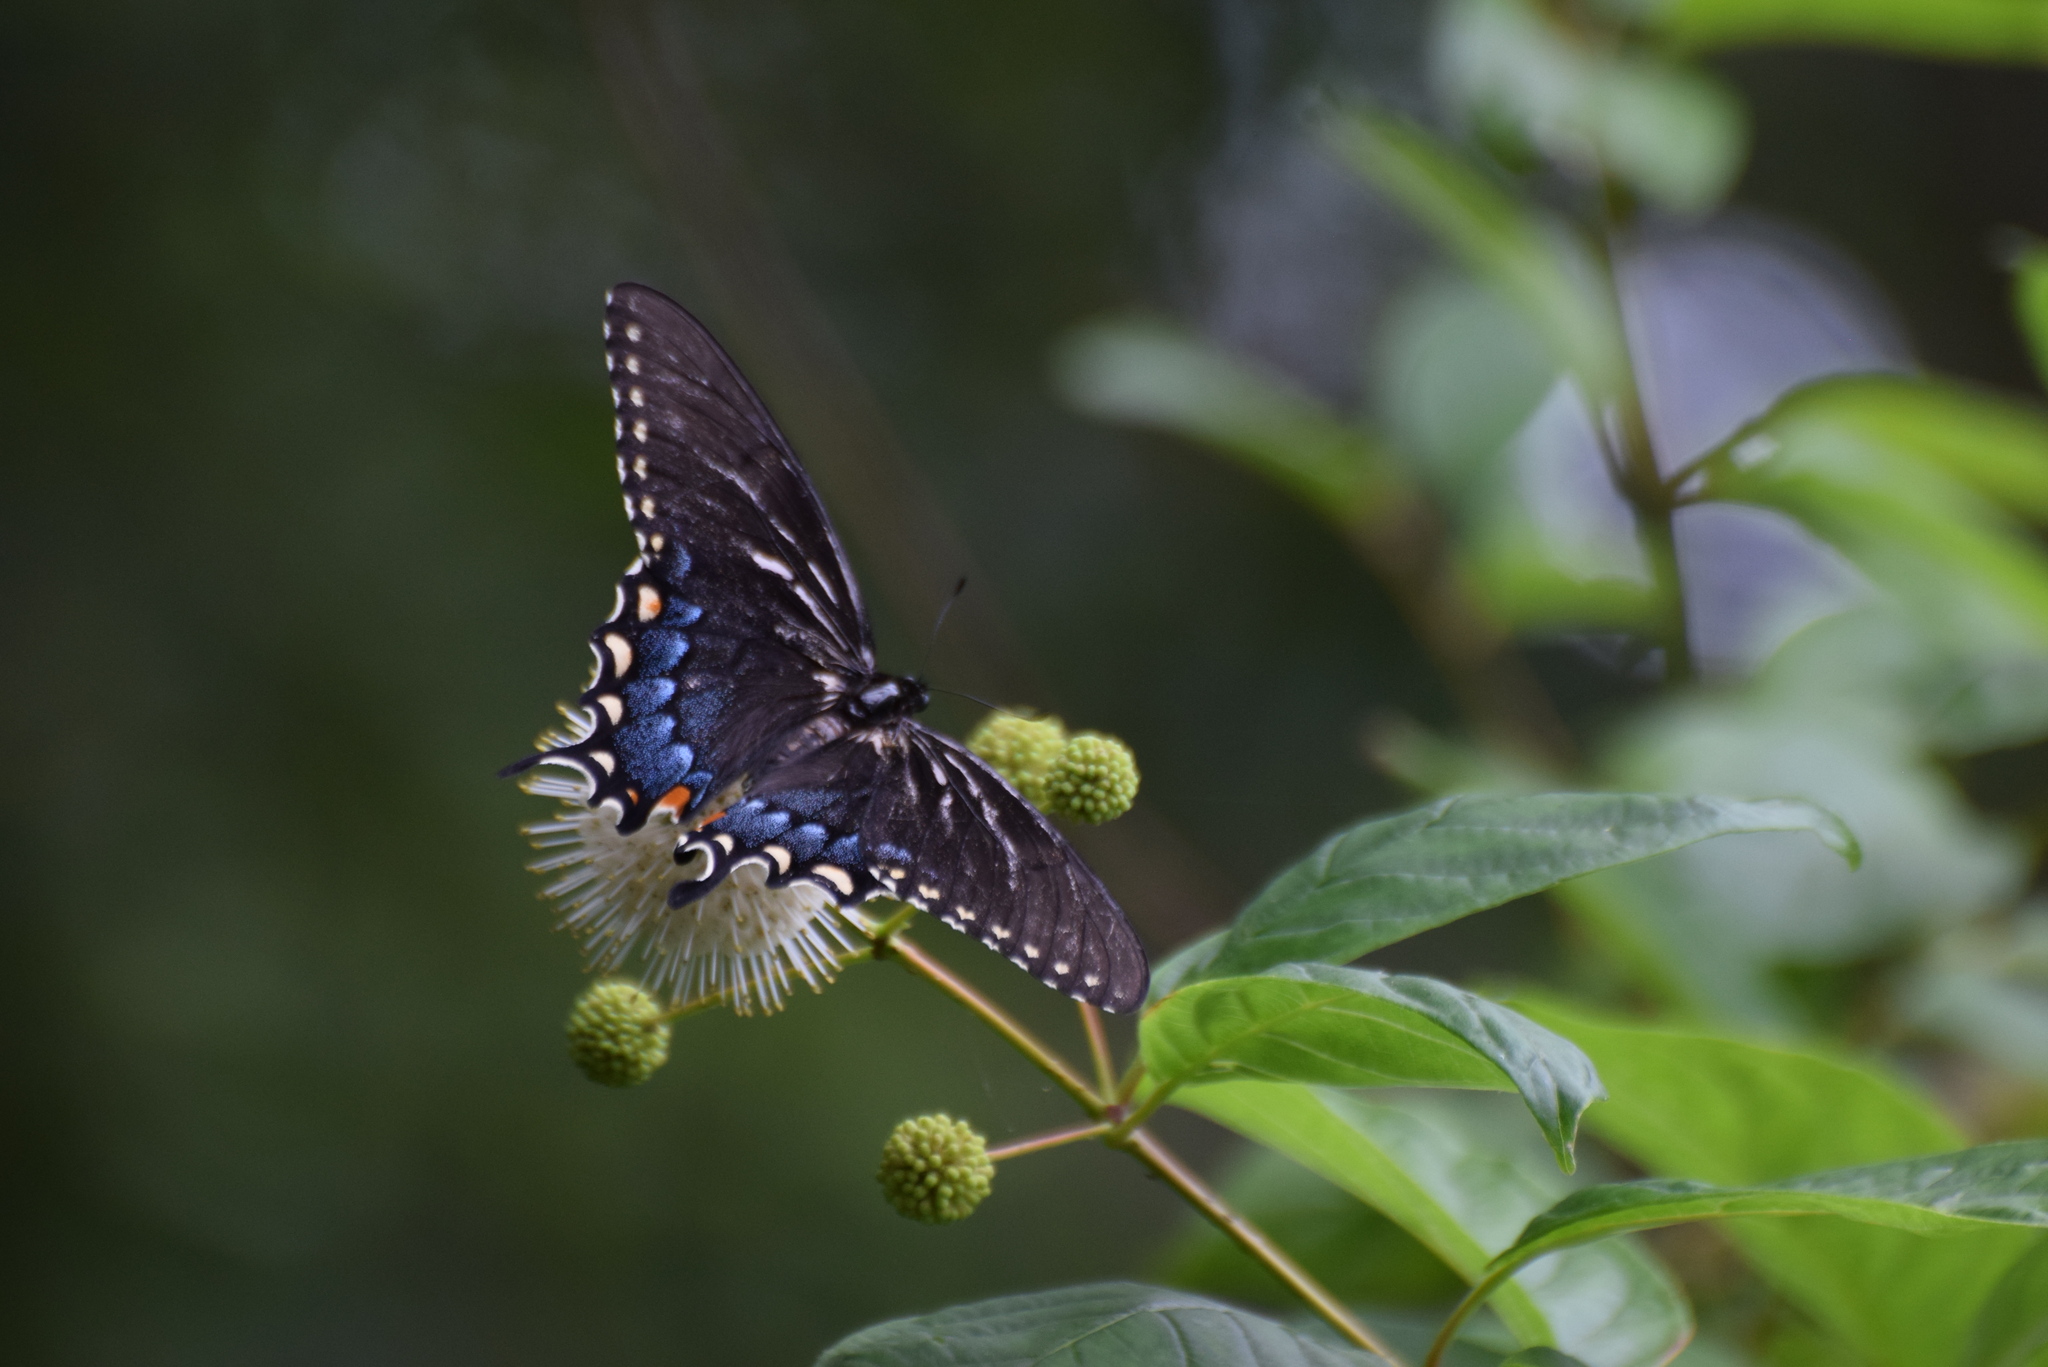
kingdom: Animalia
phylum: Arthropoda
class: Insecta
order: Lepidoptera
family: Papilionidae
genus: Papilio
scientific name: Papilio glaucus
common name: Tiger swallowtail
